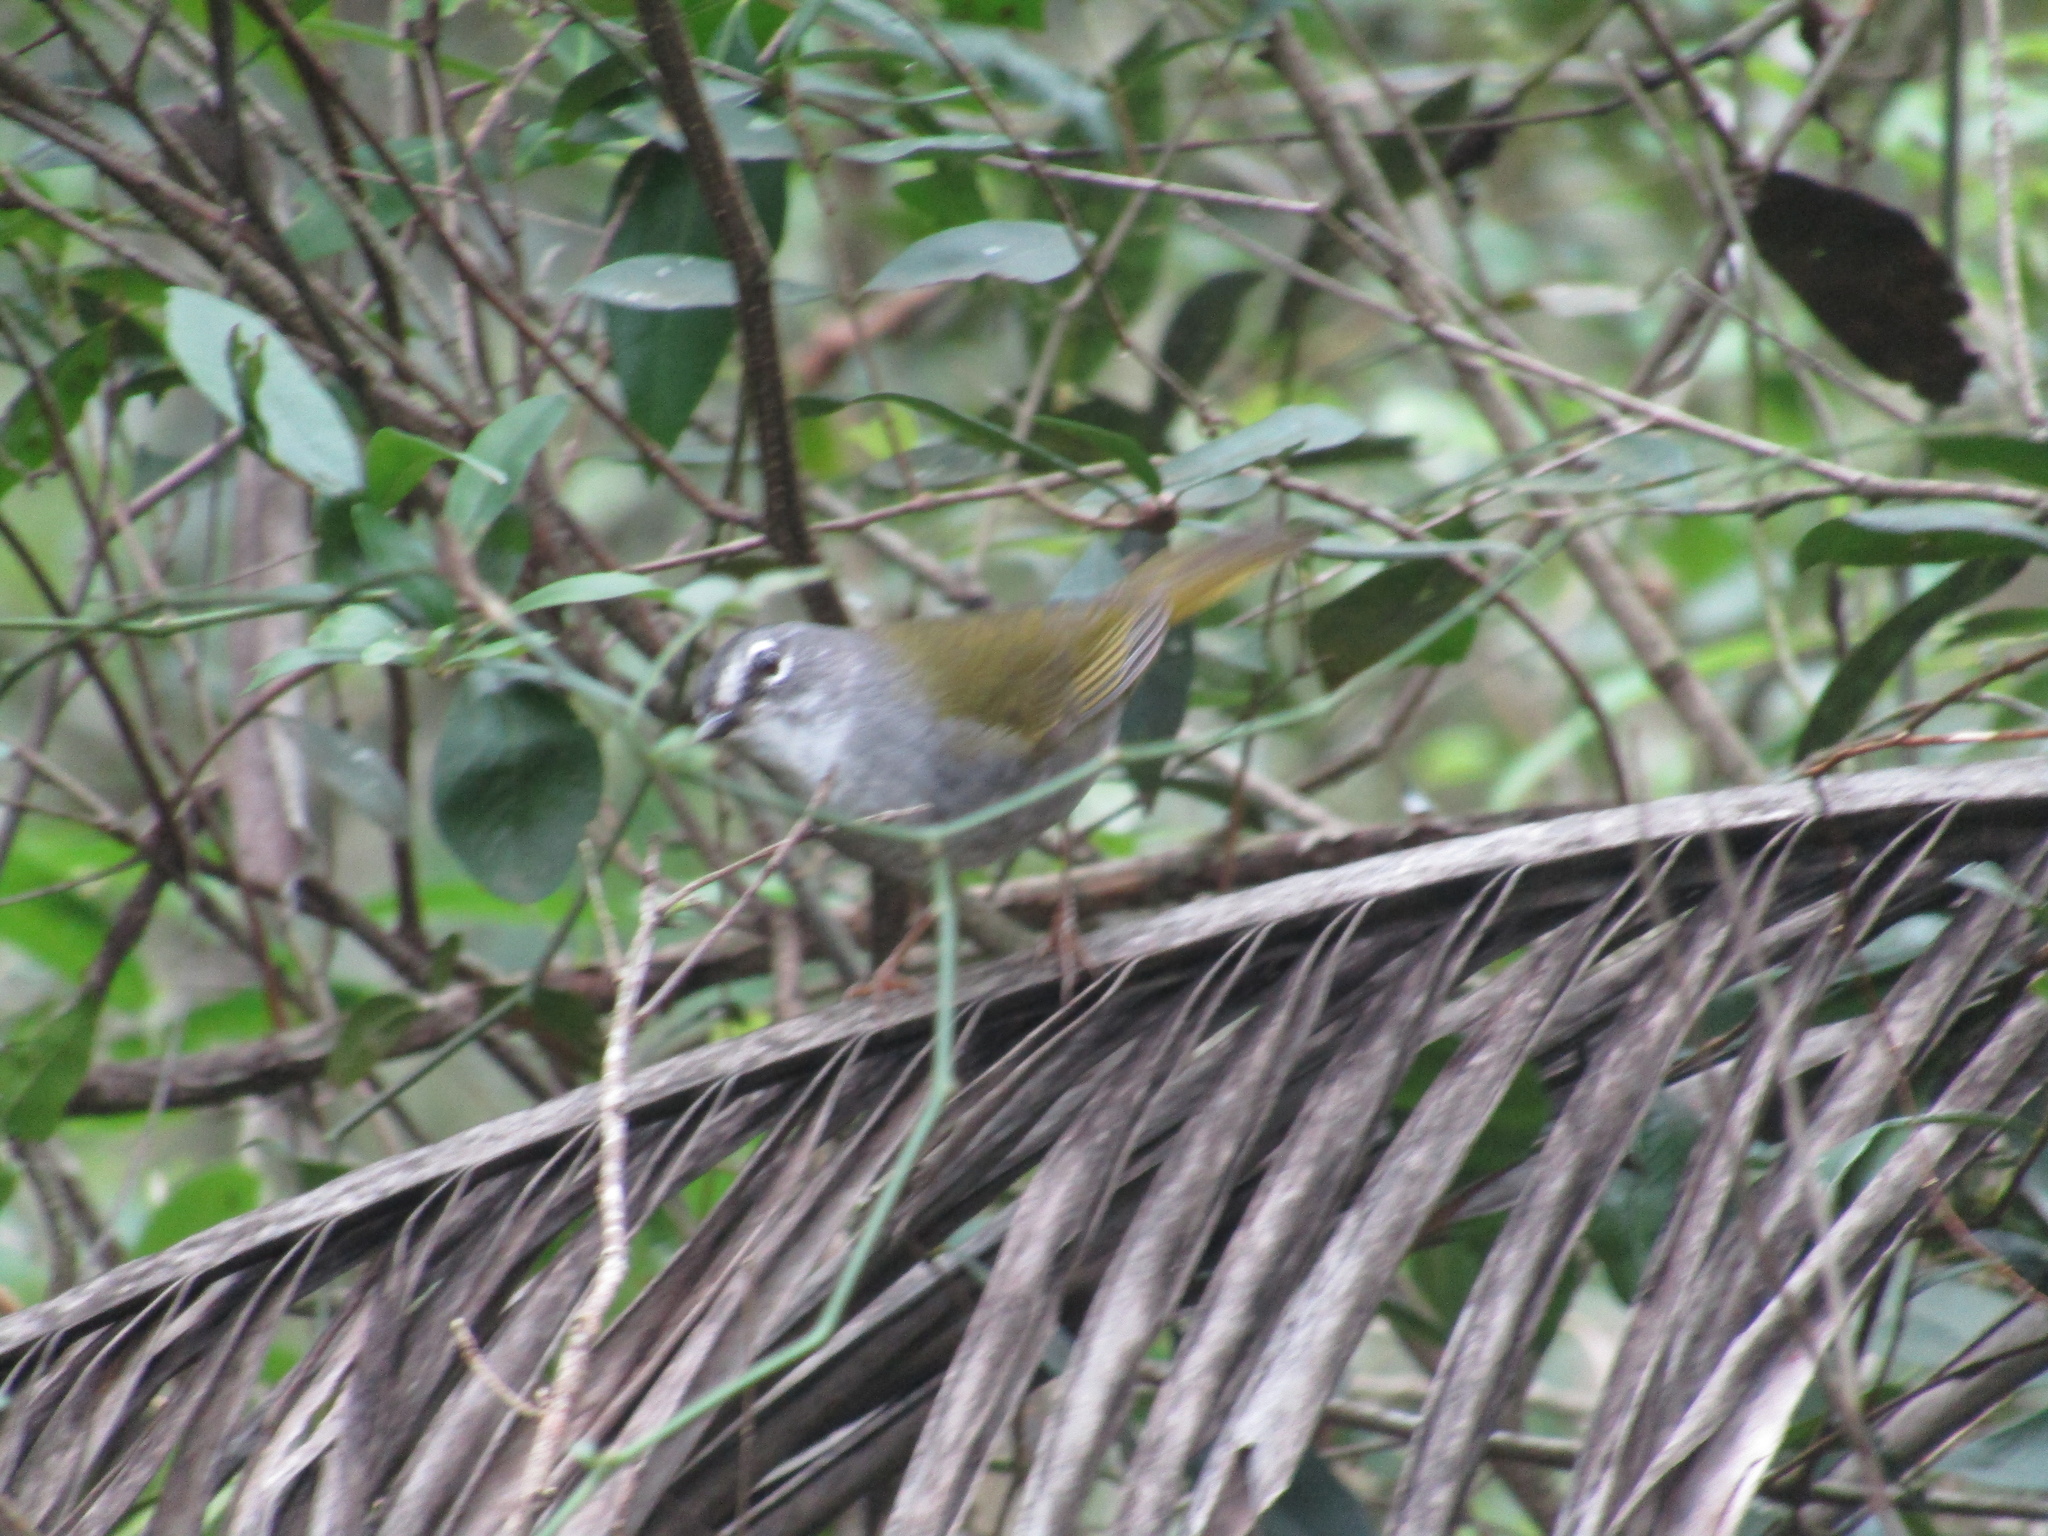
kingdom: Animalia
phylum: Chordata
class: Aves
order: Passeriformes
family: Parulidae
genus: Myiothlypis
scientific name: Myiothlypis leucoblephara
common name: White-rimmed warbler
